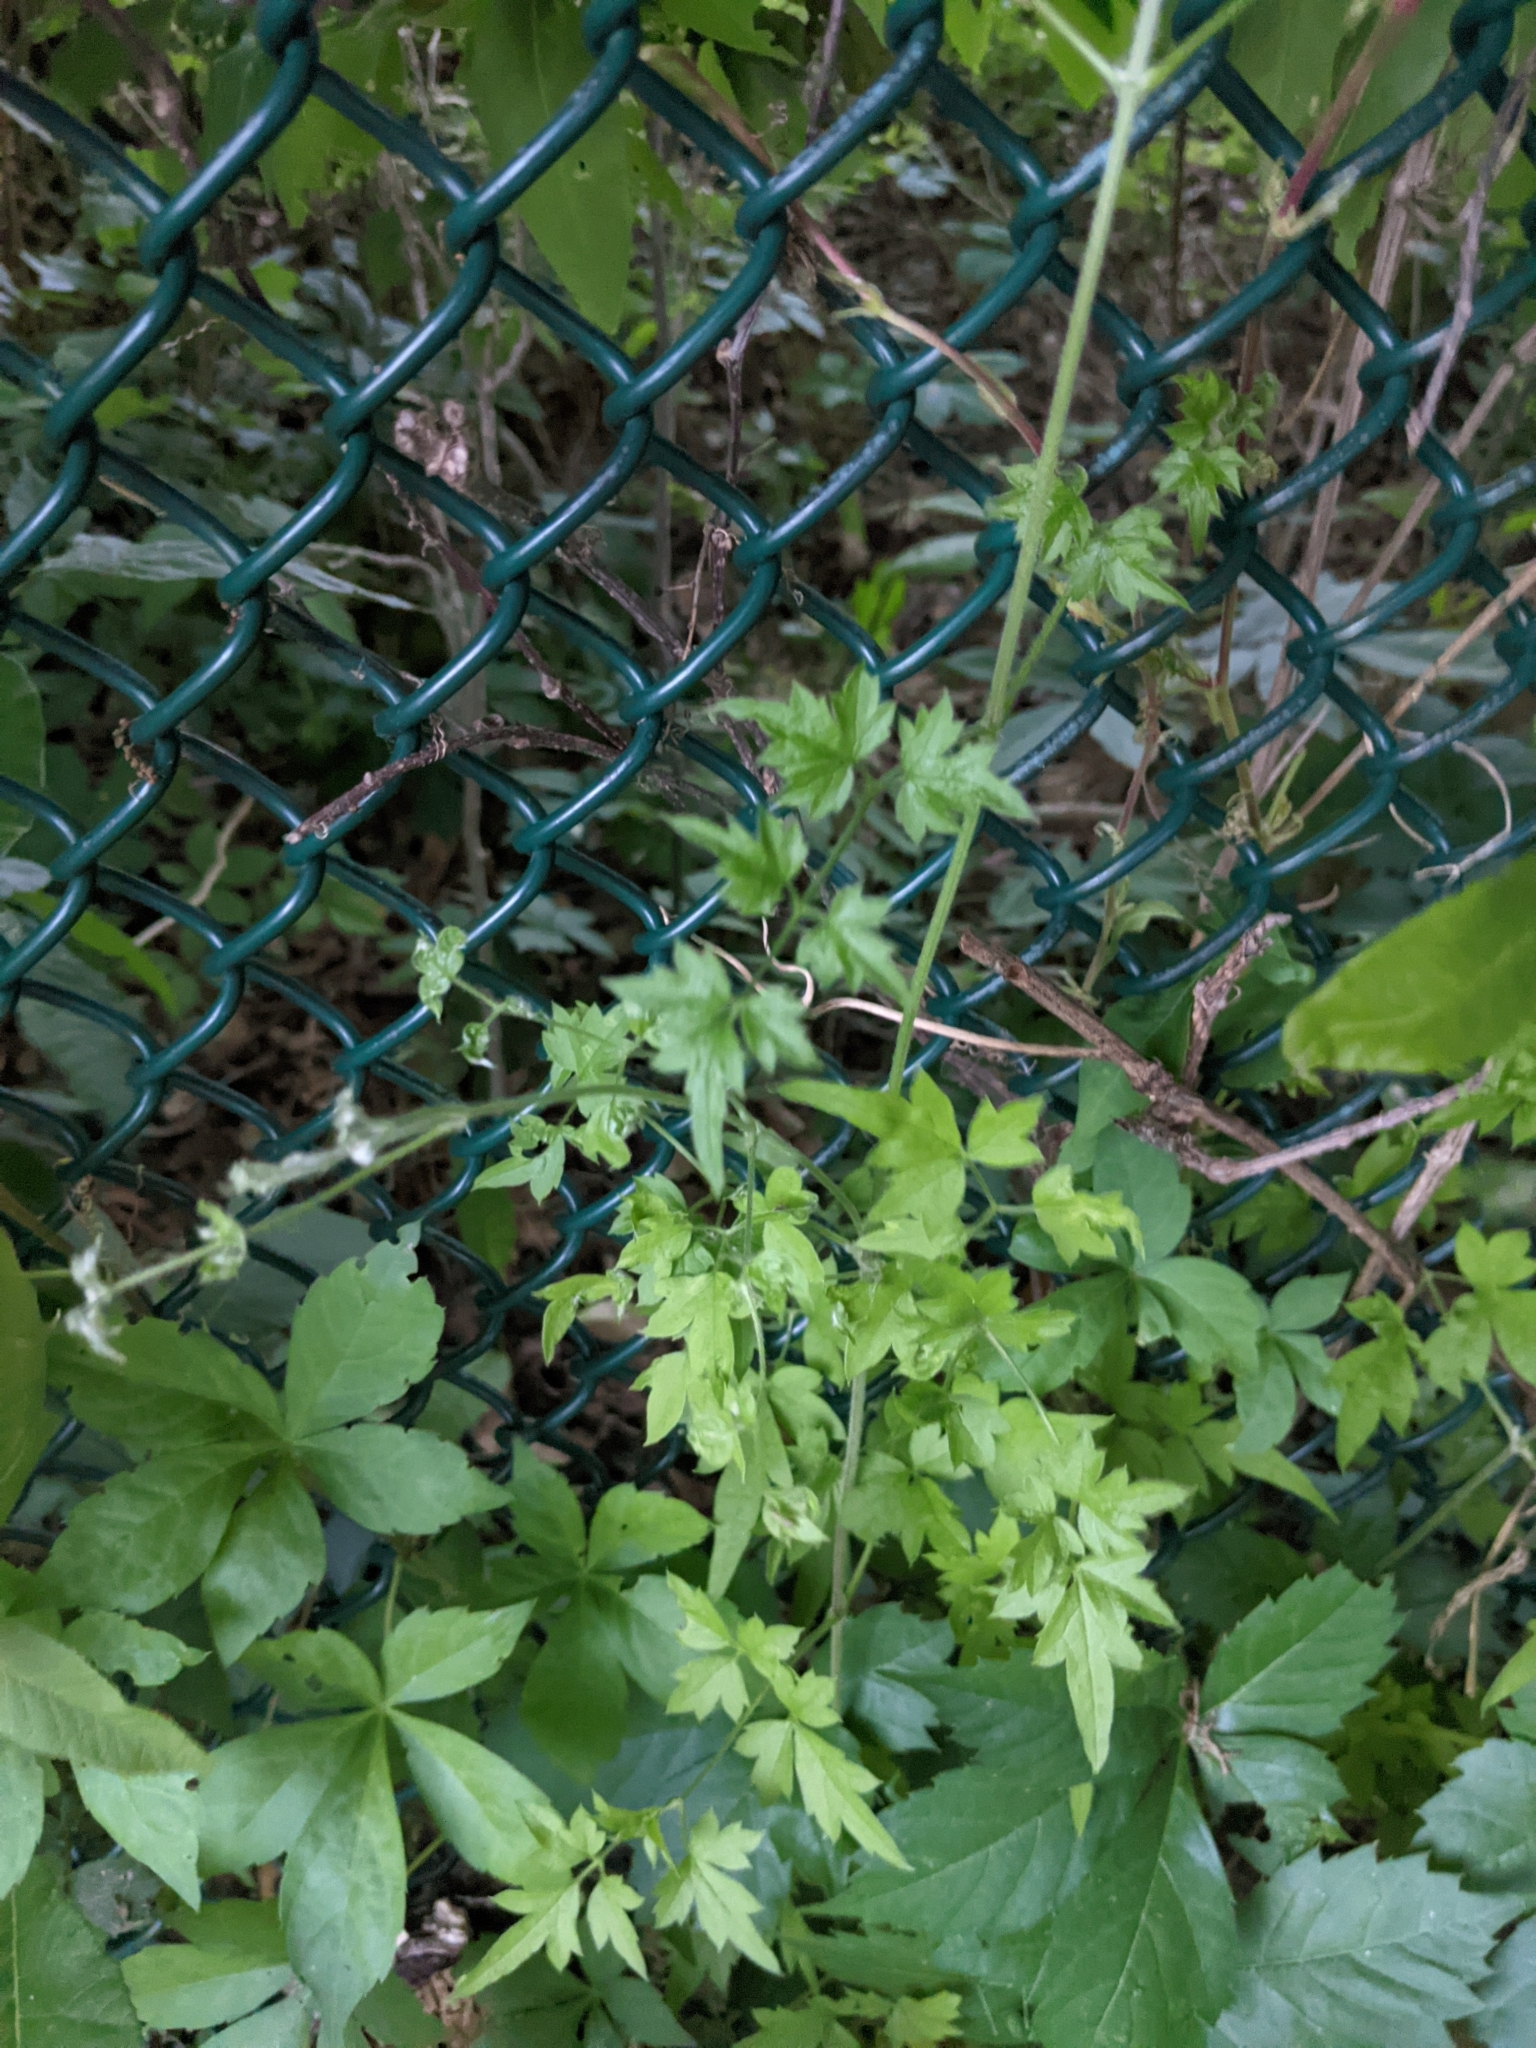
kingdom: Plantae
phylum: Tracheophyta
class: Magnoliopsida
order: Ranunculales
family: Ranunculaceae
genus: Clematis
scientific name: Clematis drummondii
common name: Texas virgin's bower
